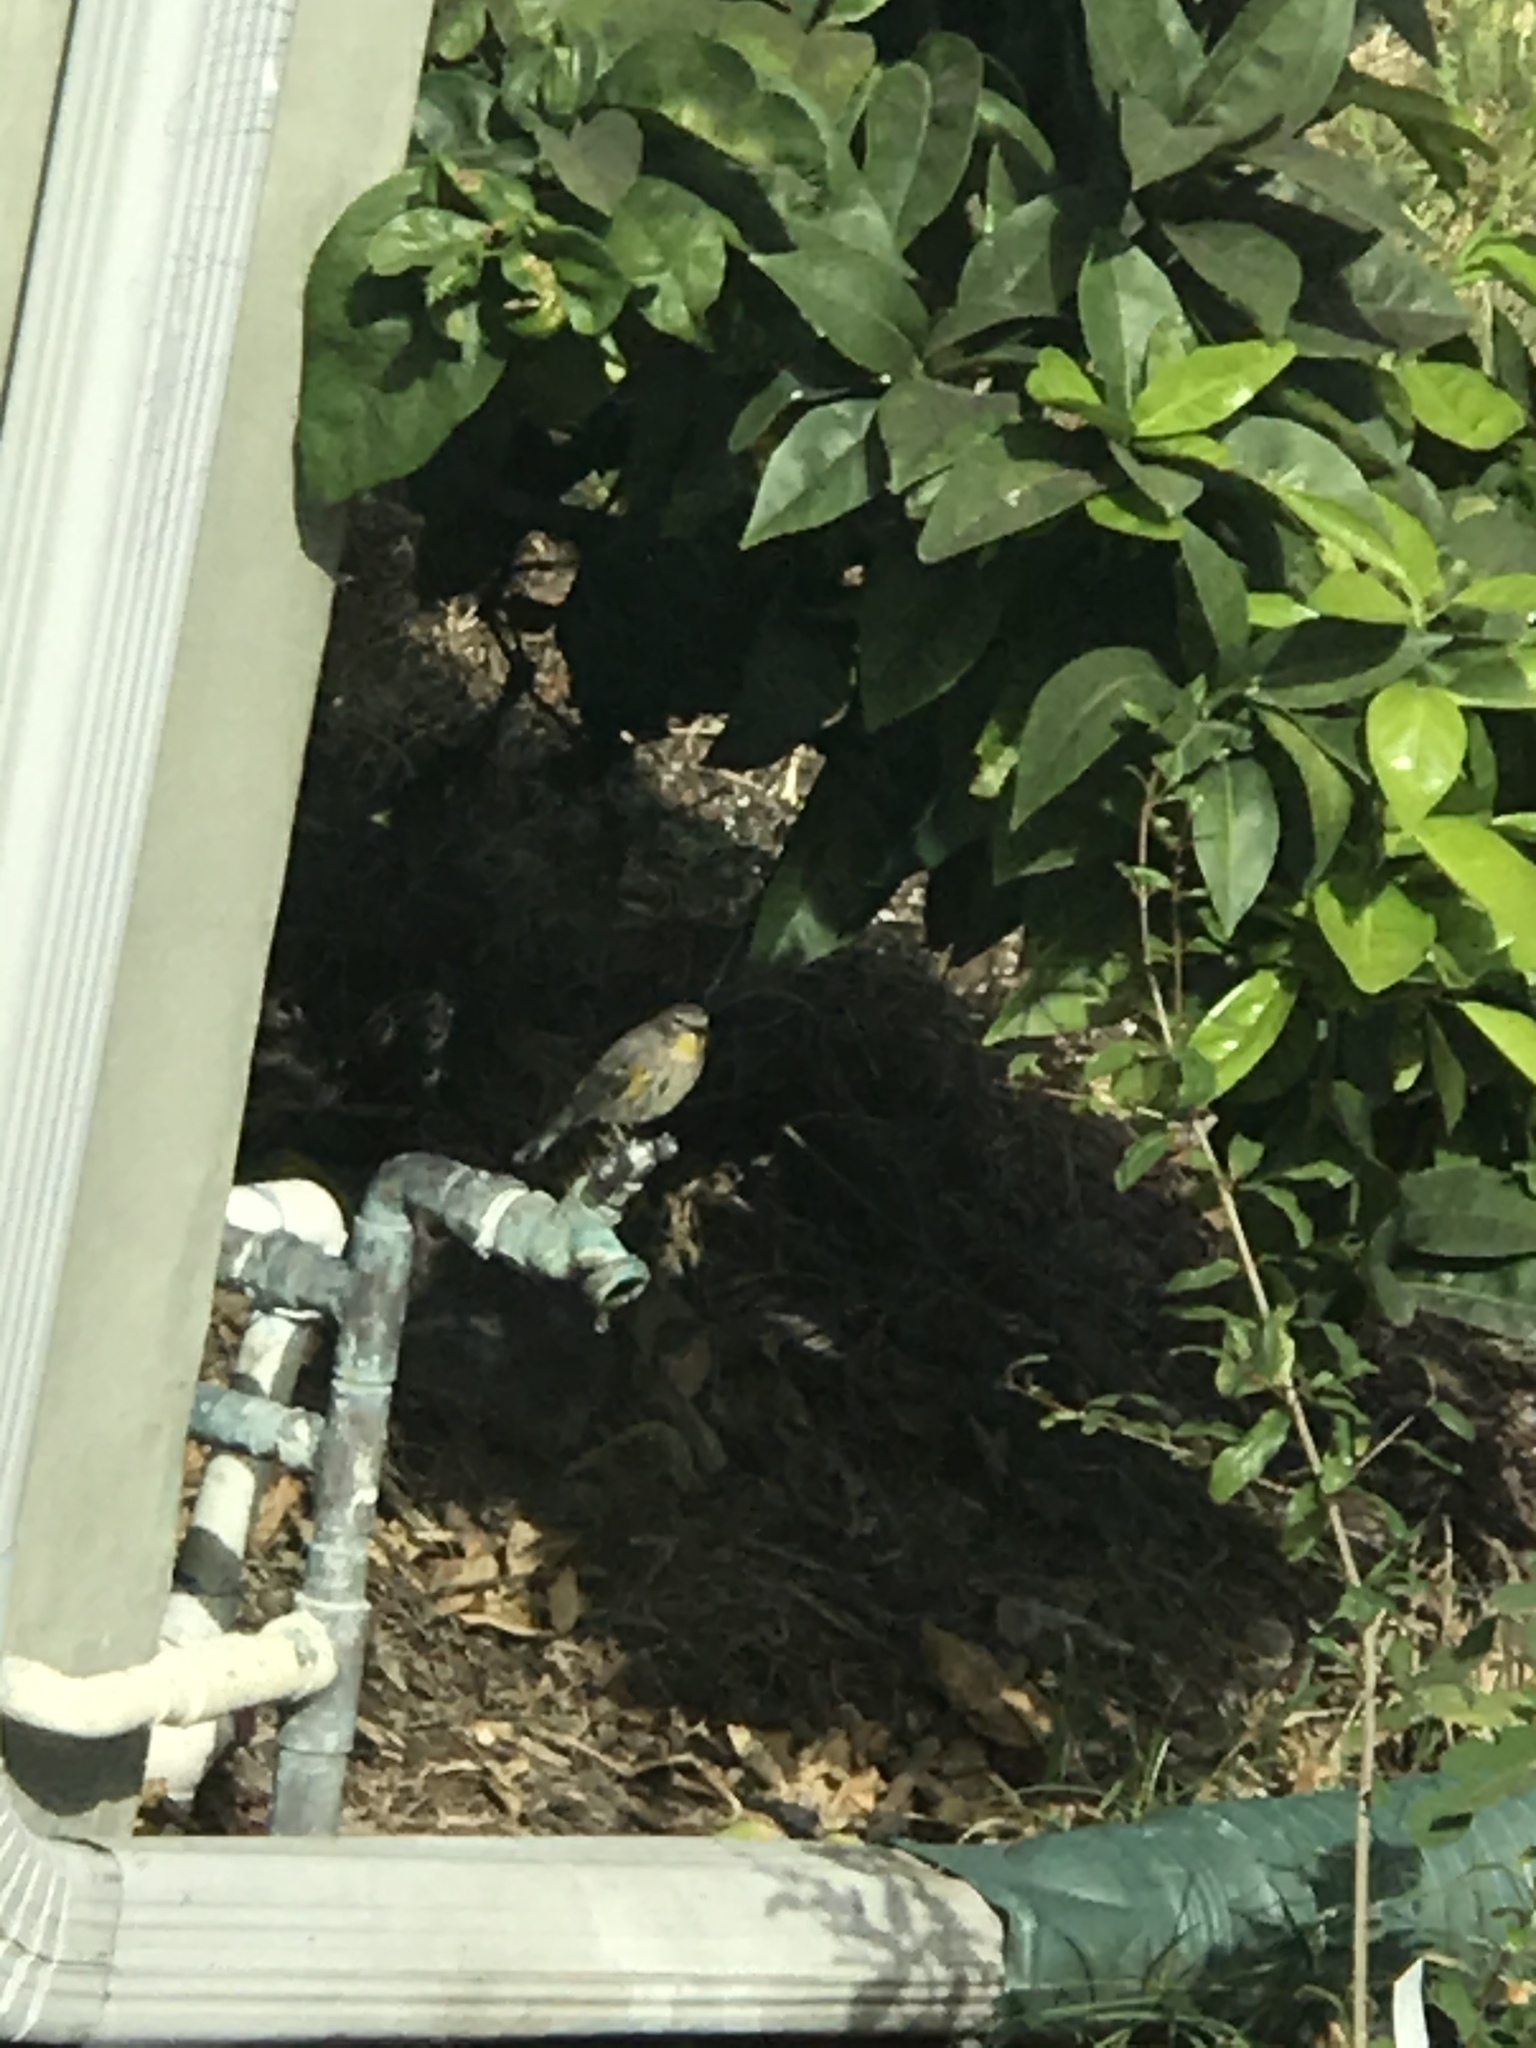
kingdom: Animalia
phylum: Chordata
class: Aves
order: Passeriformes
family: Parulidae
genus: Setophaga
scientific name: Setophaga auduboni
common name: Audubon's warbler
